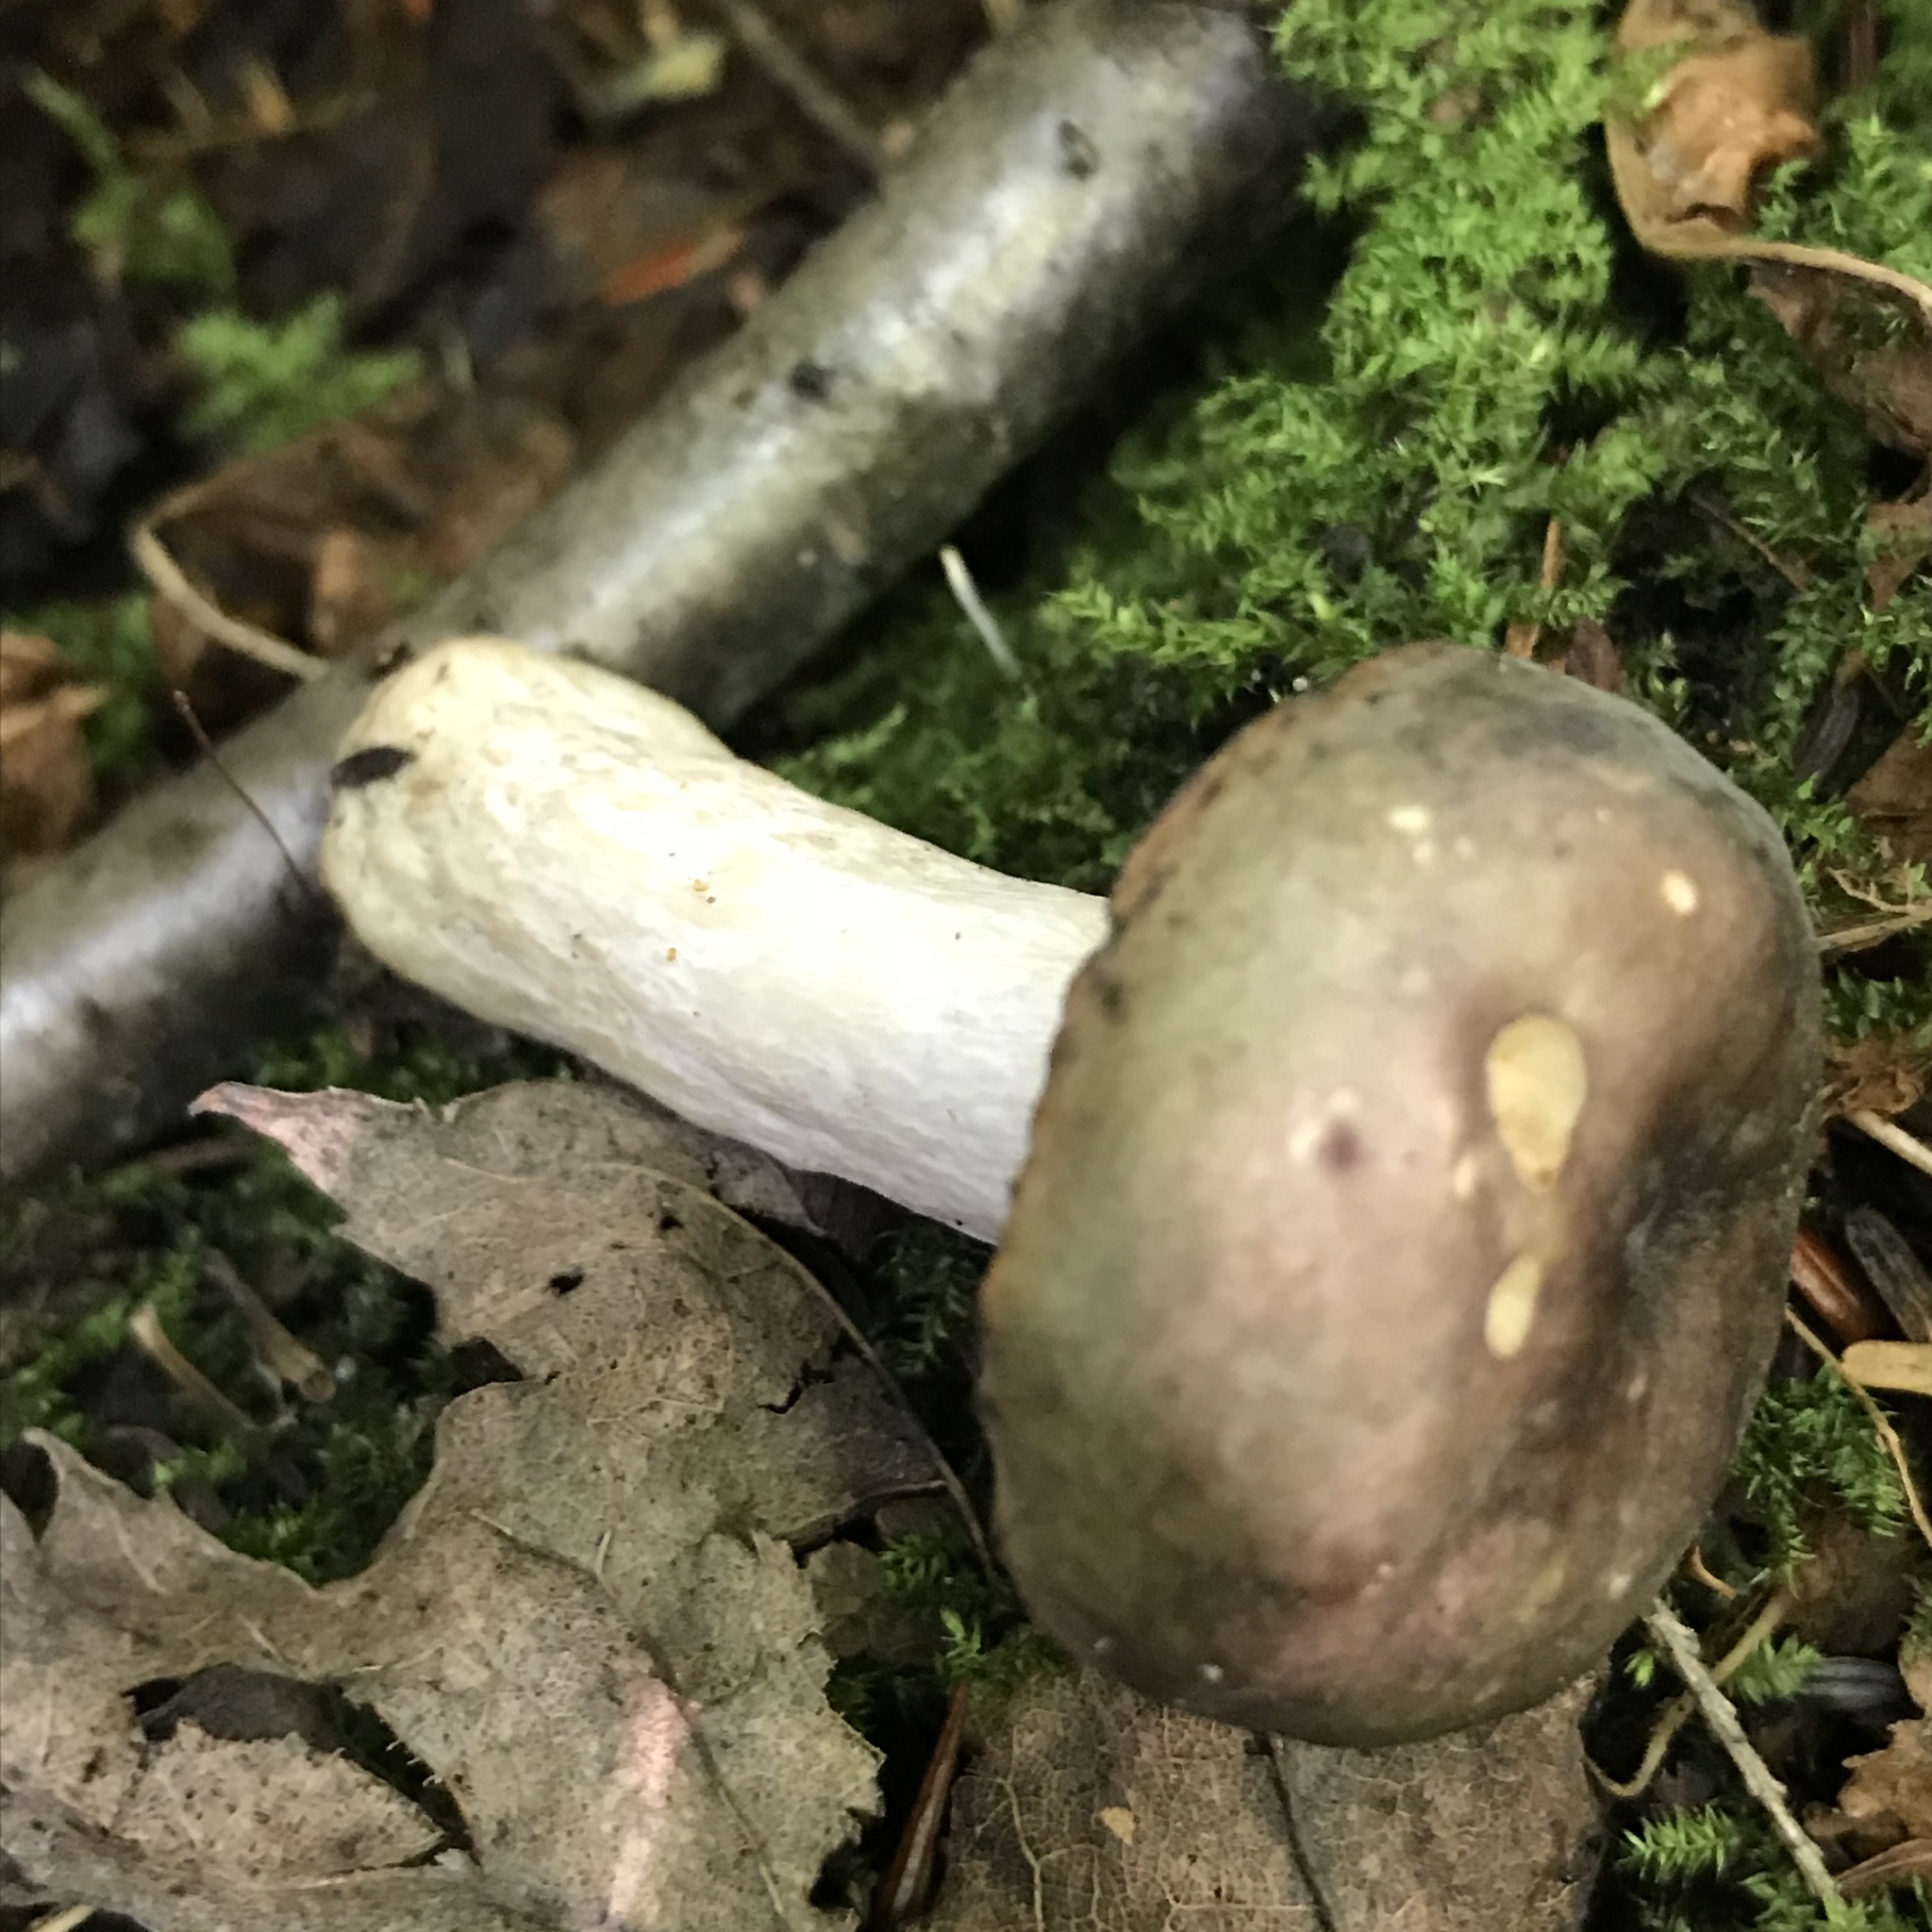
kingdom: Fungi
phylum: Ascomycota
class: Sordariomycetes
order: Hypocreales
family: Hypocreaceae
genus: Hypomyces
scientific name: Hypomyces luteovirens
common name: Yellow-green russula mold
